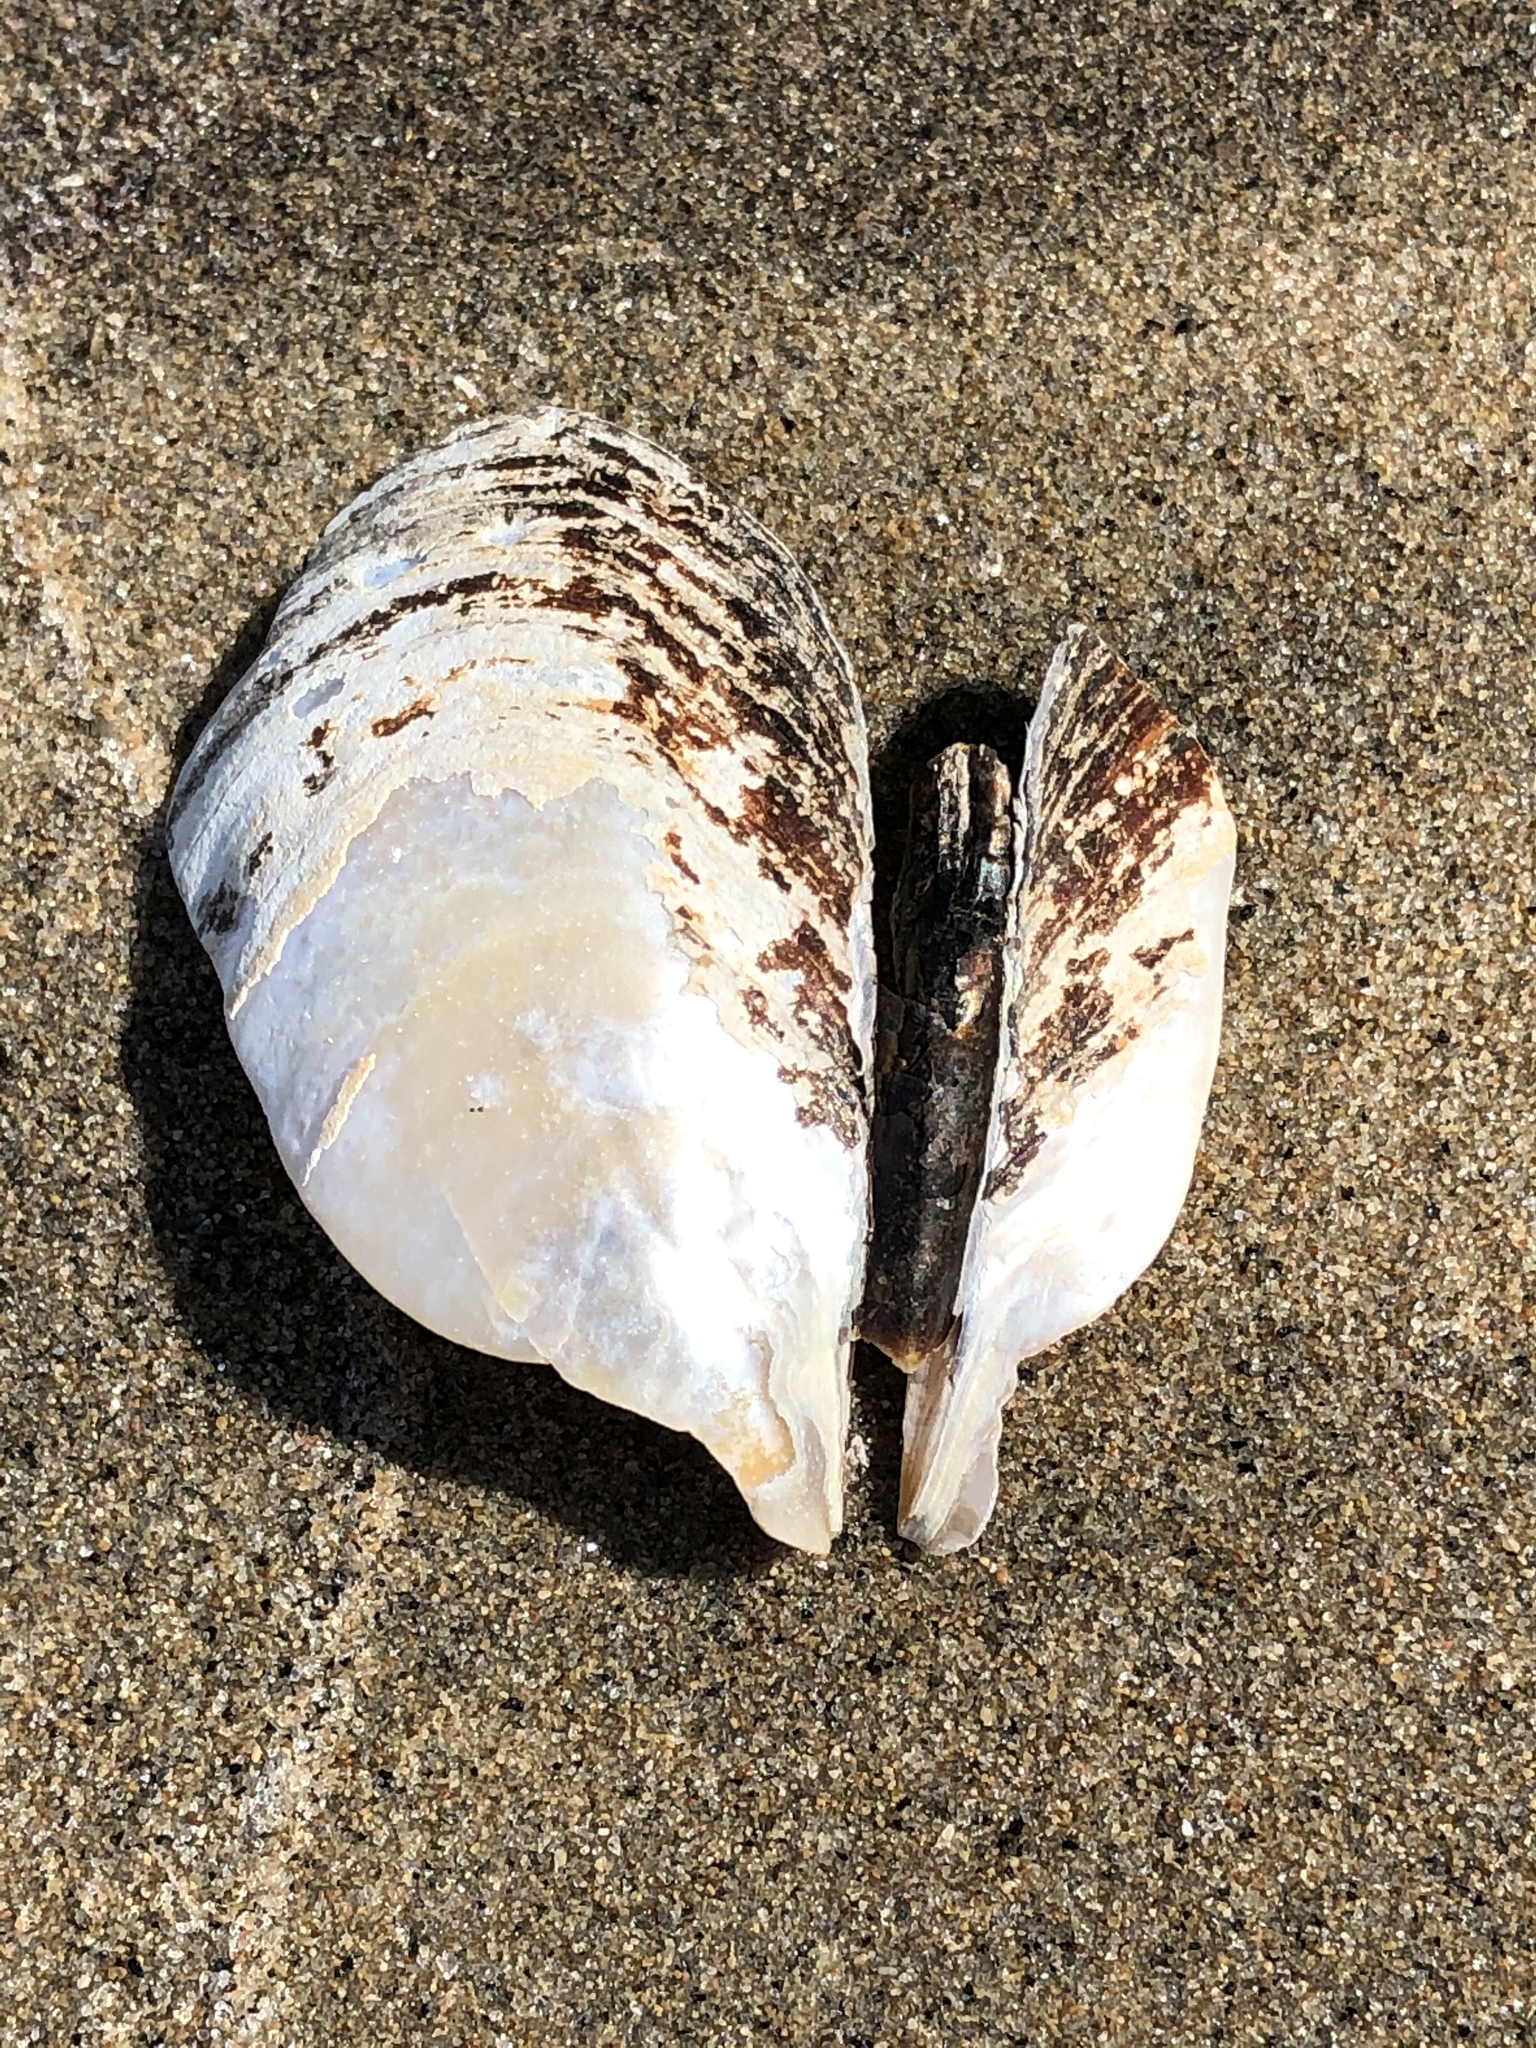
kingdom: Animalia
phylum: Mollusca
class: Bivalvia
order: Unionida
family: Unionidae
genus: Elliptio
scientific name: Elliptio complanata
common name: Eastern elliptio
